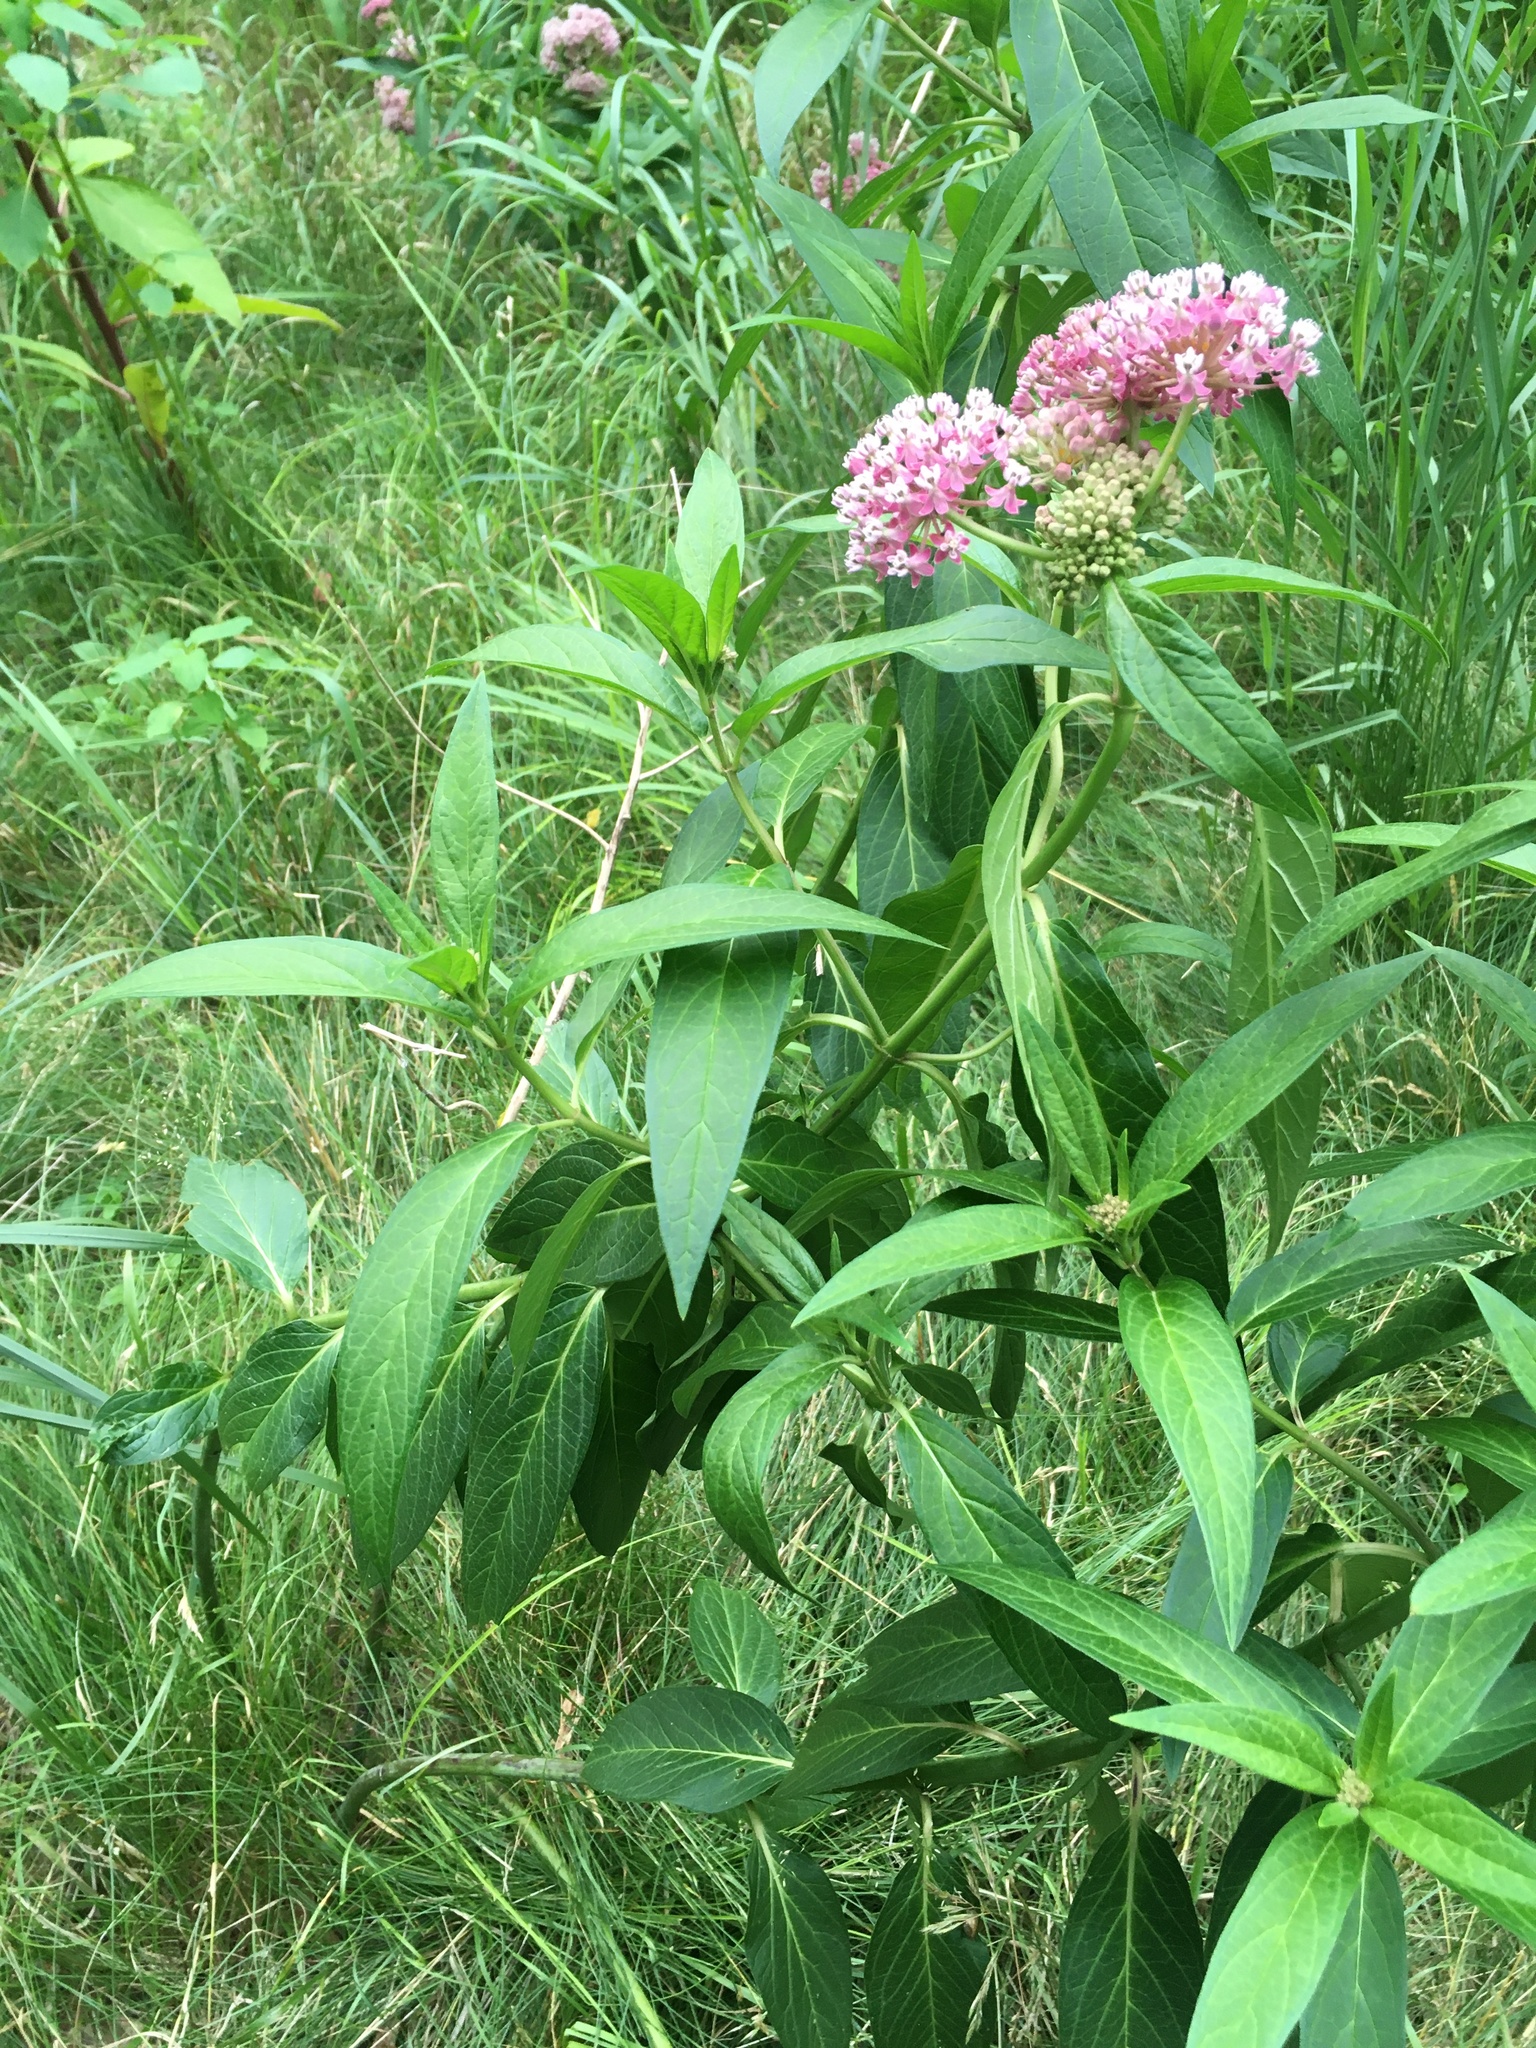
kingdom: Plantae
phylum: Tracheophyta
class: Magnoliopsida
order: Gentianales
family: Apocynaceae
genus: Asclepias
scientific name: Asclepias incarnata
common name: Swamp milkweed
